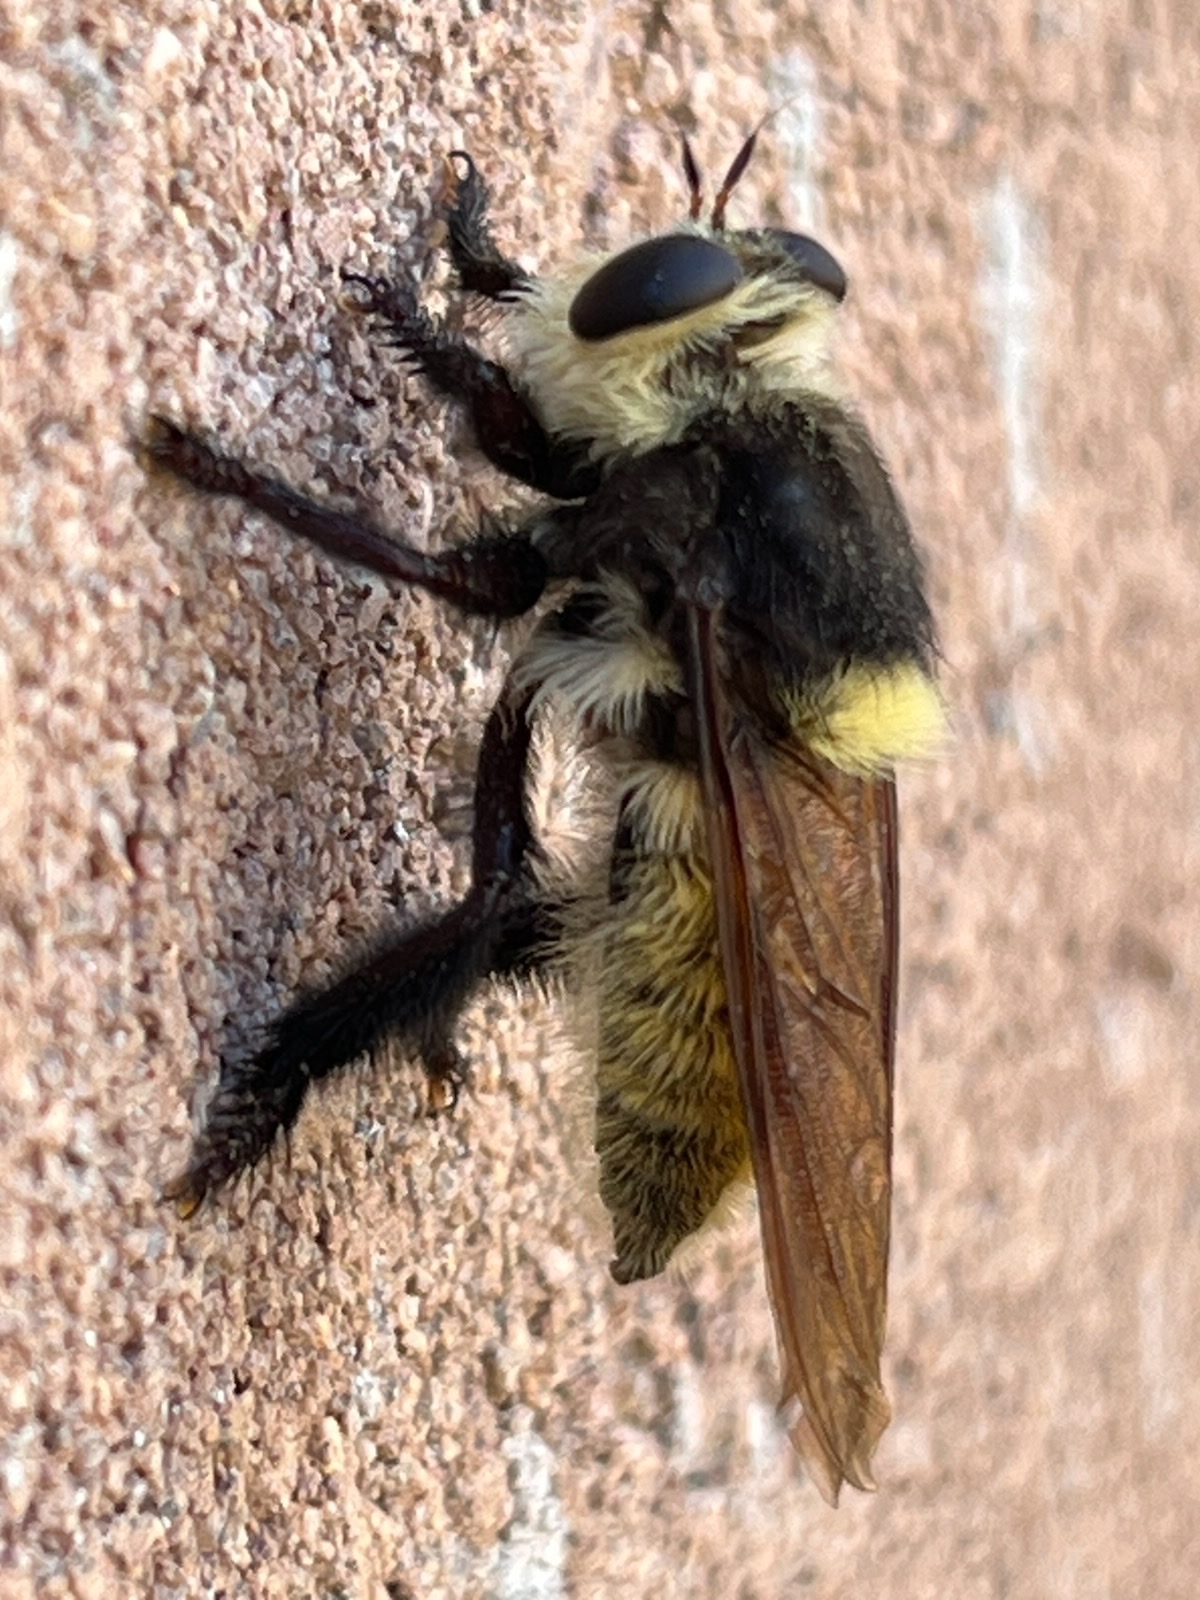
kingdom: Animalia
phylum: Arthropoda
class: Insecta
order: Diptera
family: Asilidae
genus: Mallophora
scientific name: Mallophora fautrix
